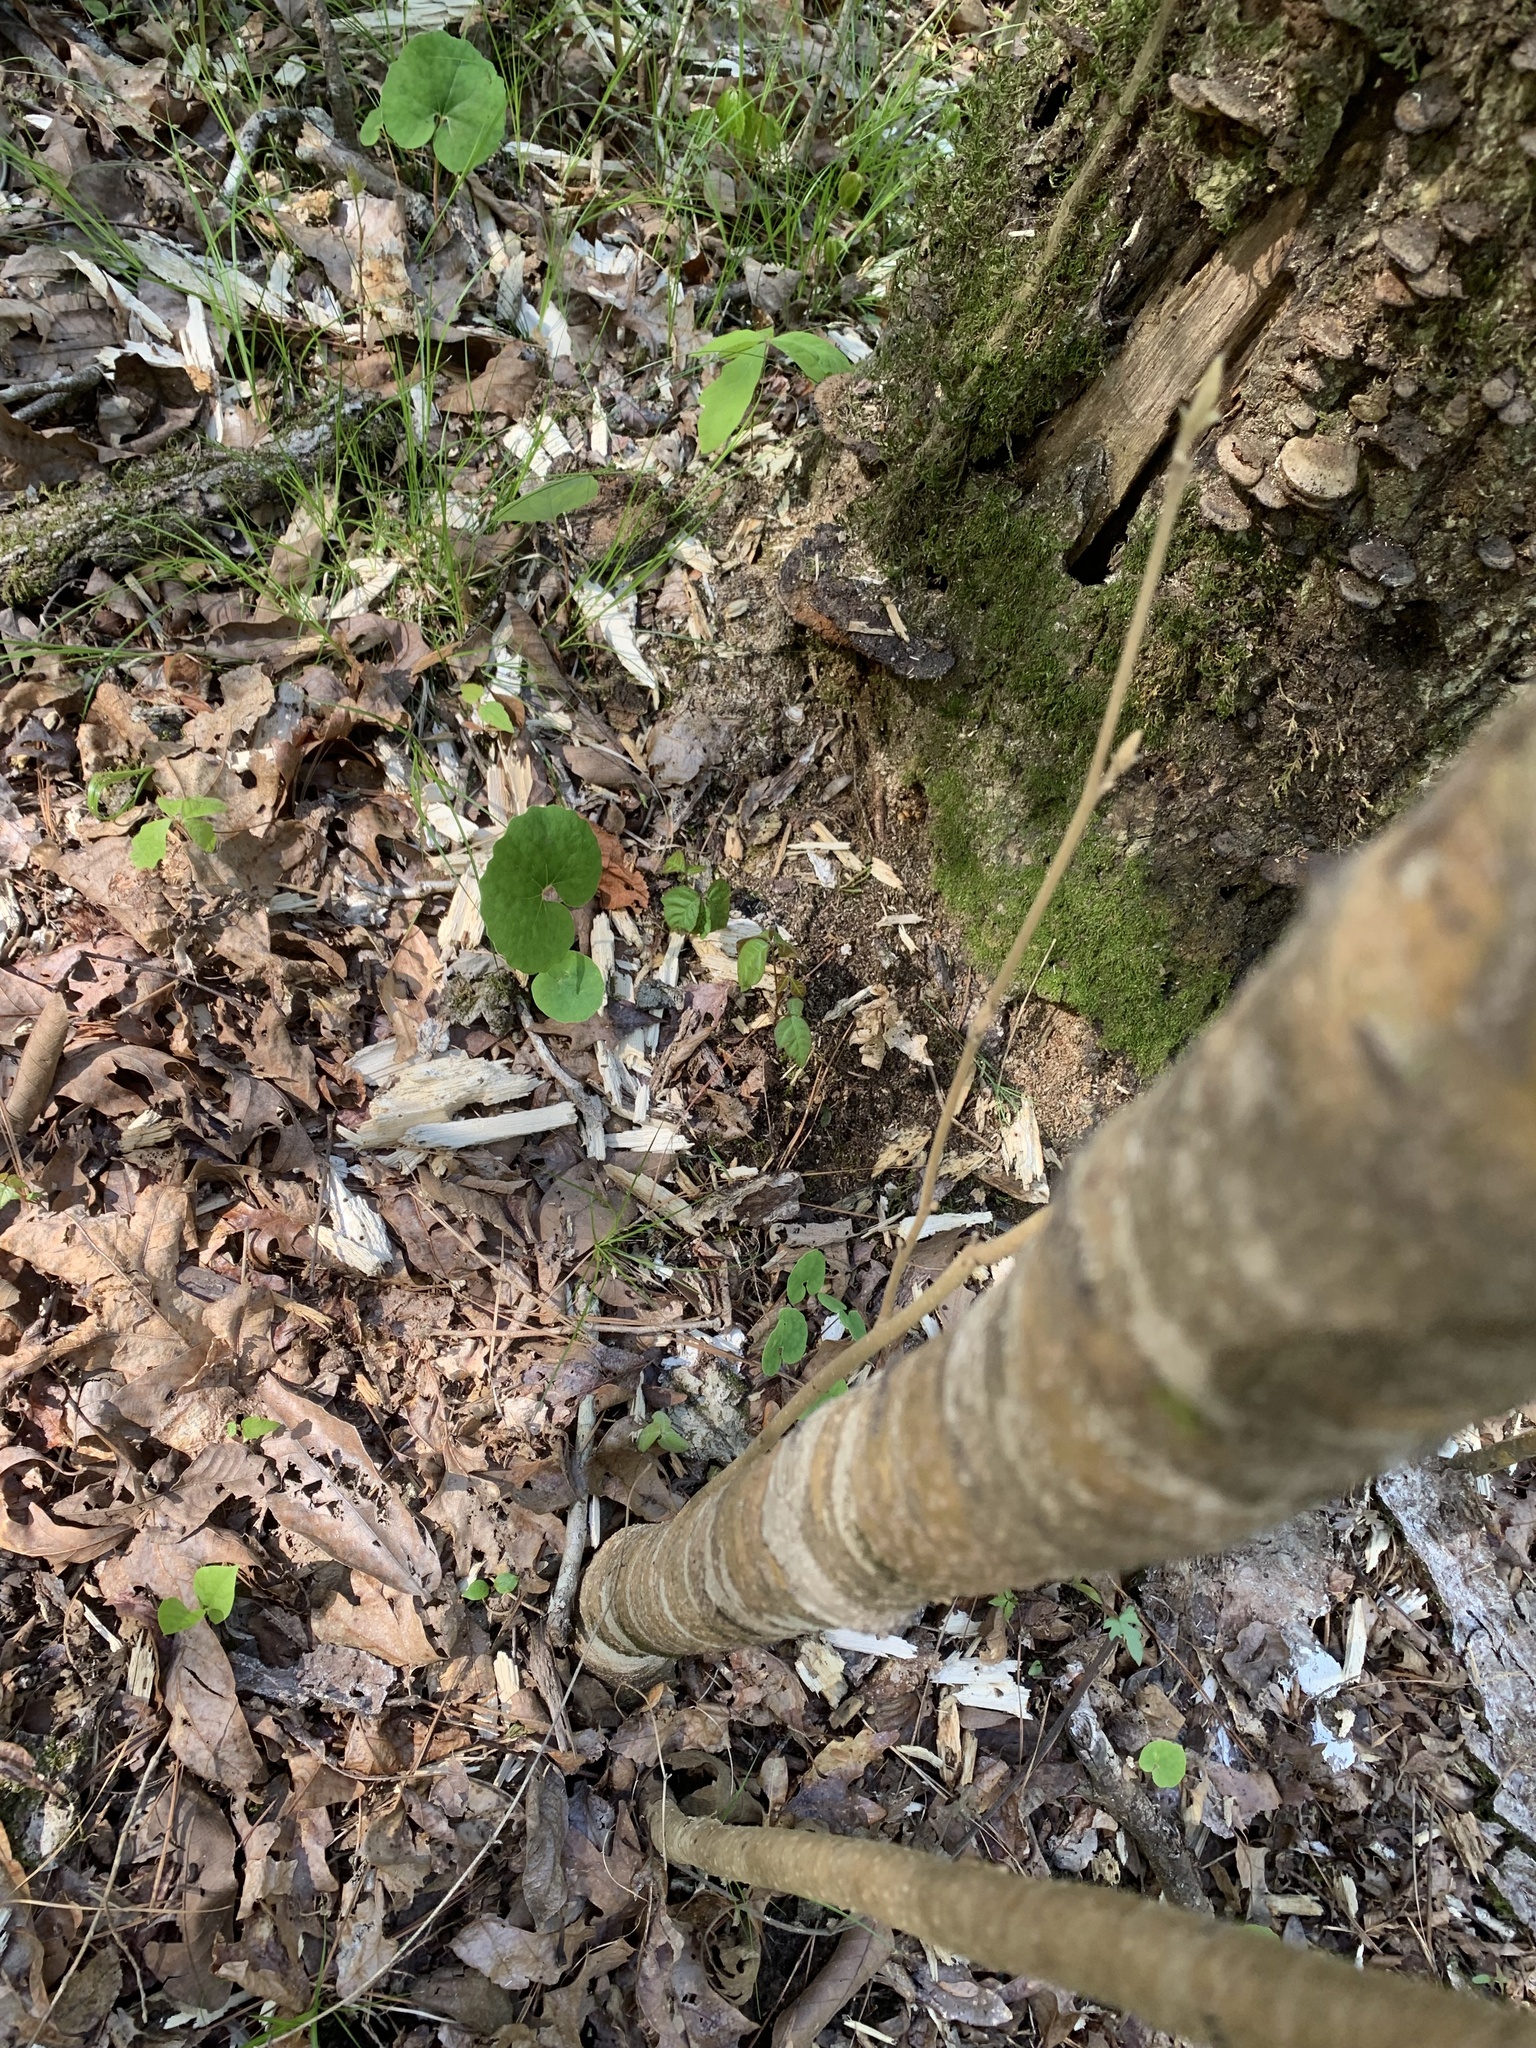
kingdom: Plantae
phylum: Tracheophyta
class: Magnoliopsida
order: Ranunculales
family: Papaveraceae
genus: Sanguinaria
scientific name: Sanguinaria canadensis
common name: Bloodroot
